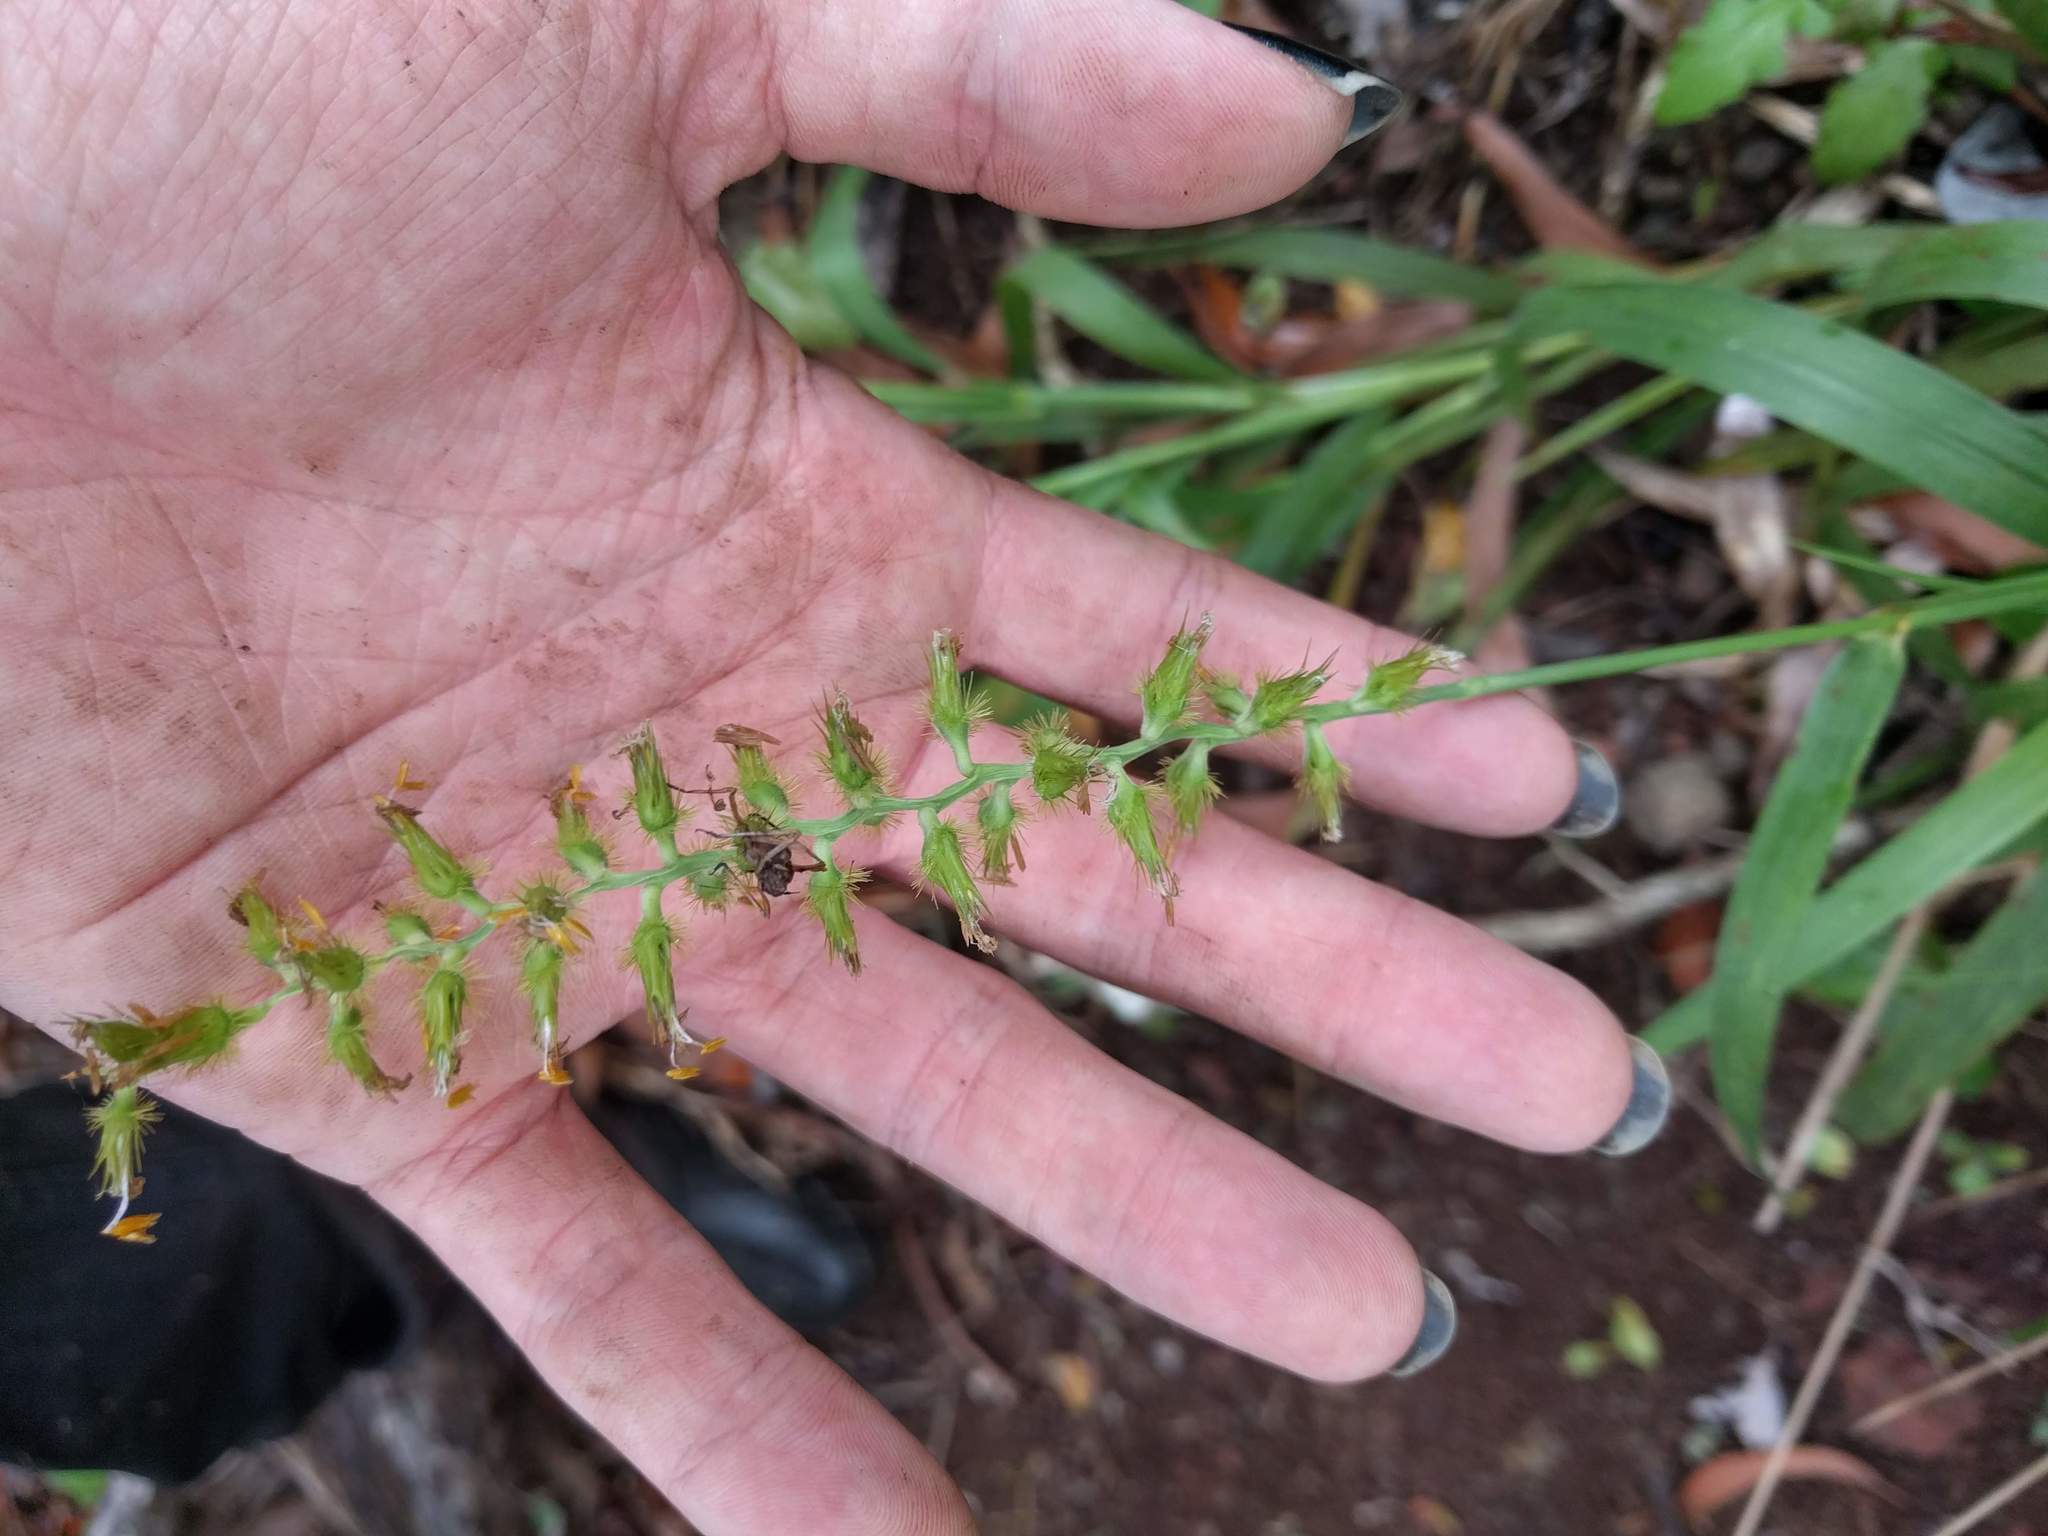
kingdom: Plantae
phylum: Tracheophyta
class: Liliopsida
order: Poales
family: Poaceae
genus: Cenchrus
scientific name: Cenchrus agrimonioides
